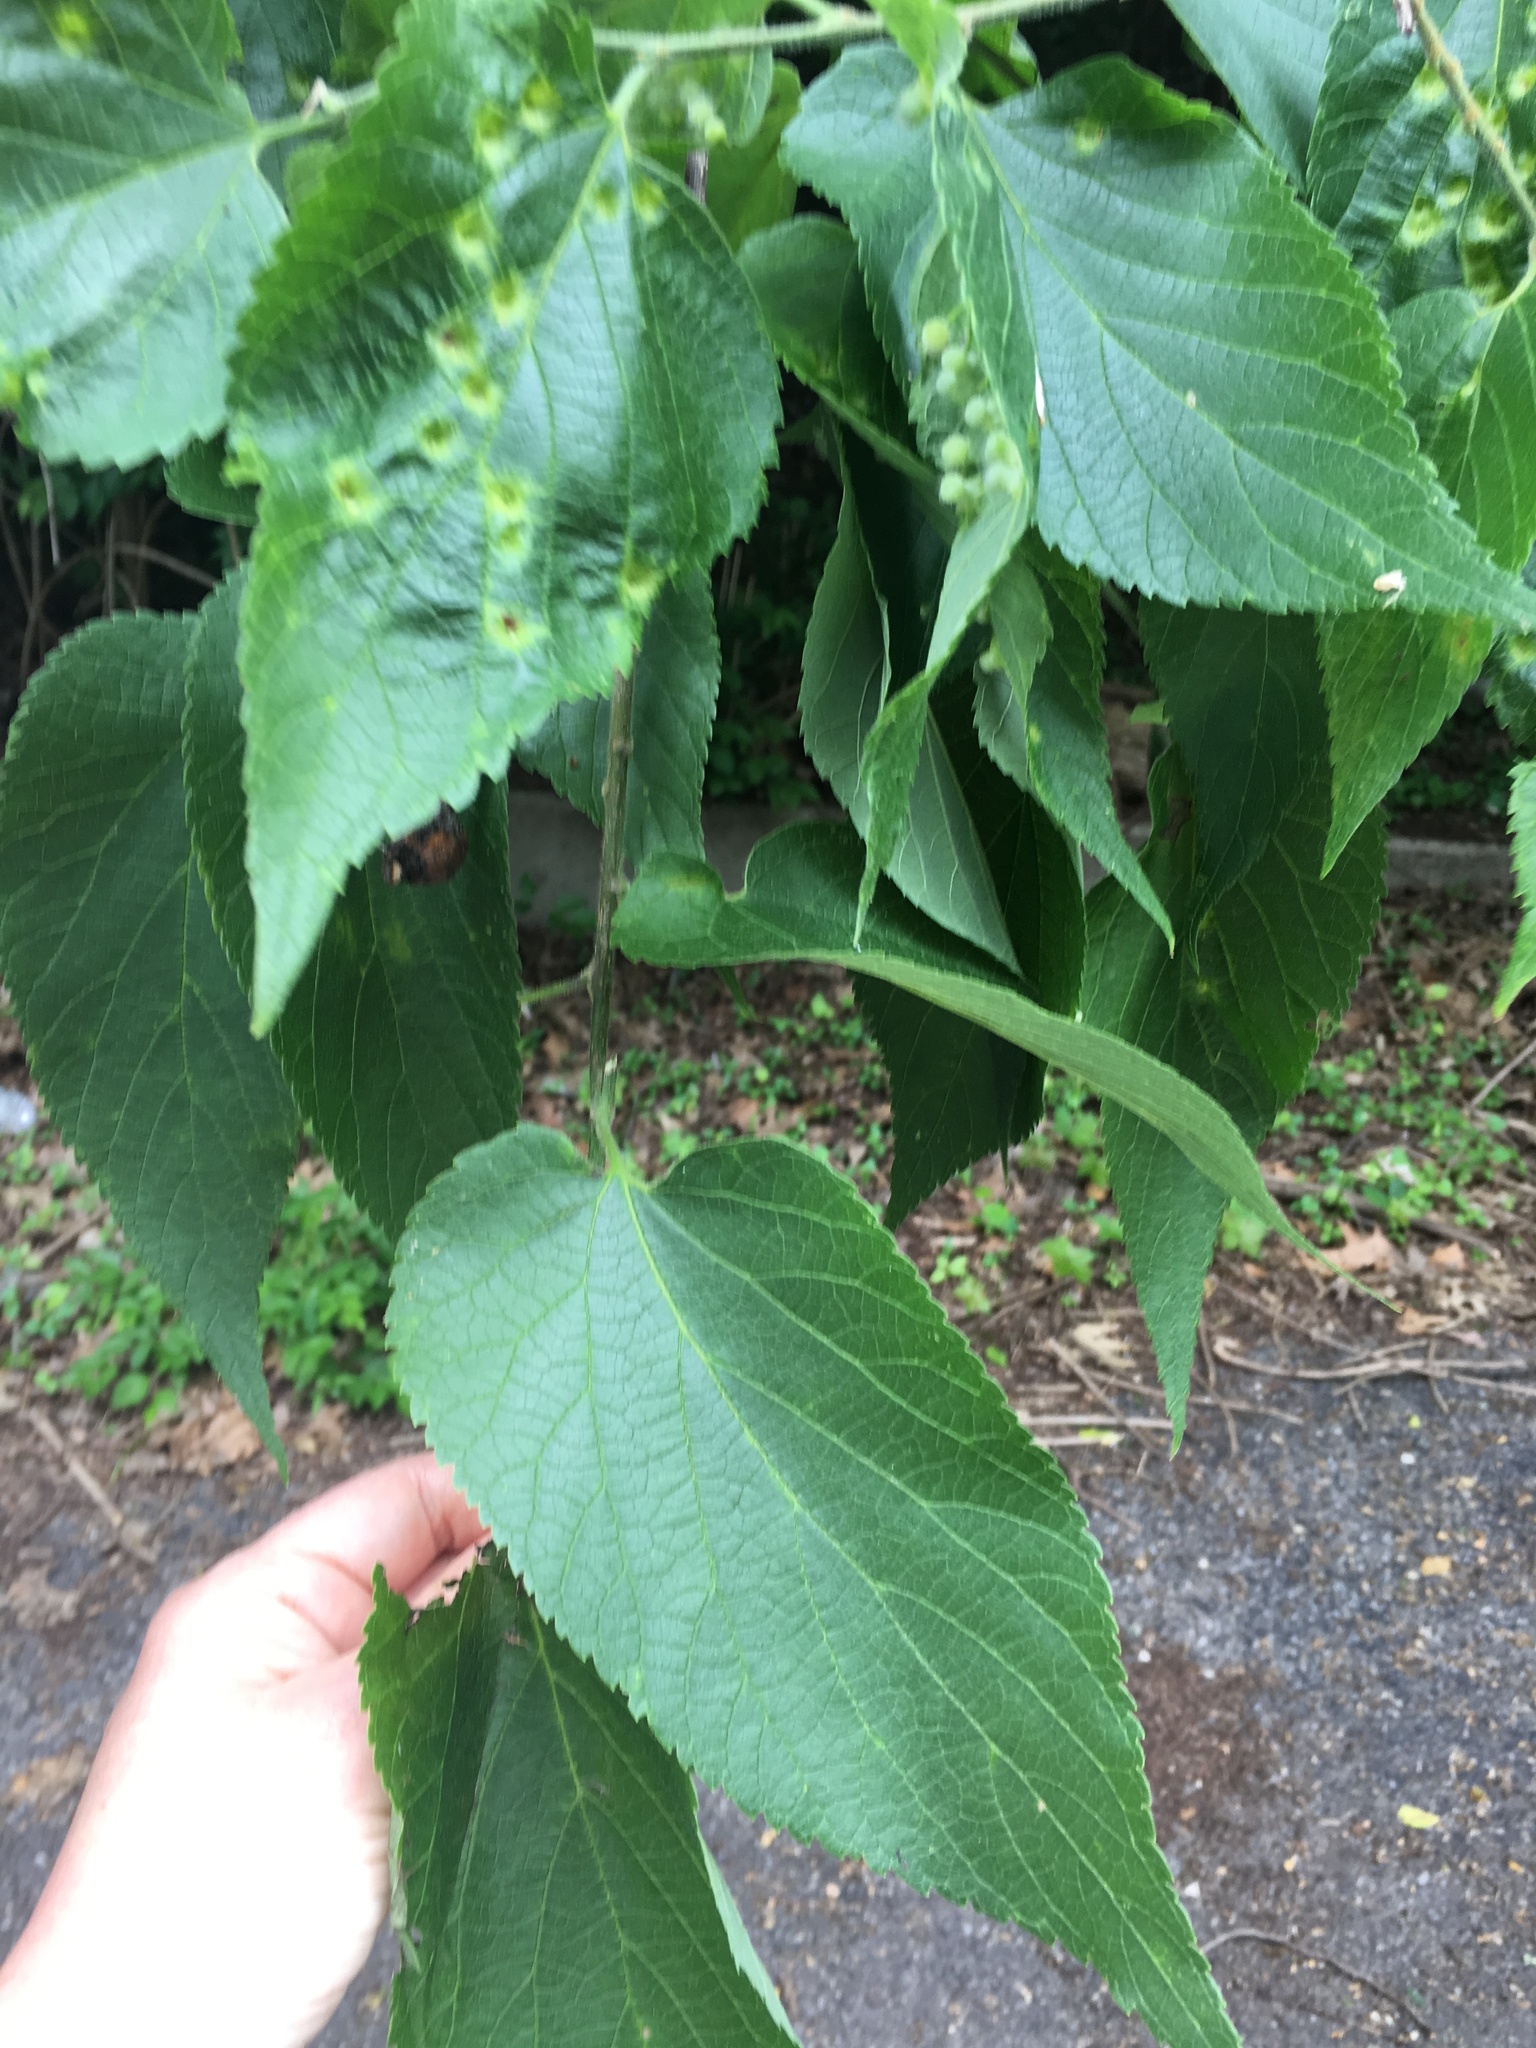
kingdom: Plantae
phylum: Tracheophyta
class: Magnoliopsida
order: Rosales
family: Cannabaceae
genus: Celtis
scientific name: Celtis occidentalis
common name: Common hackberry
